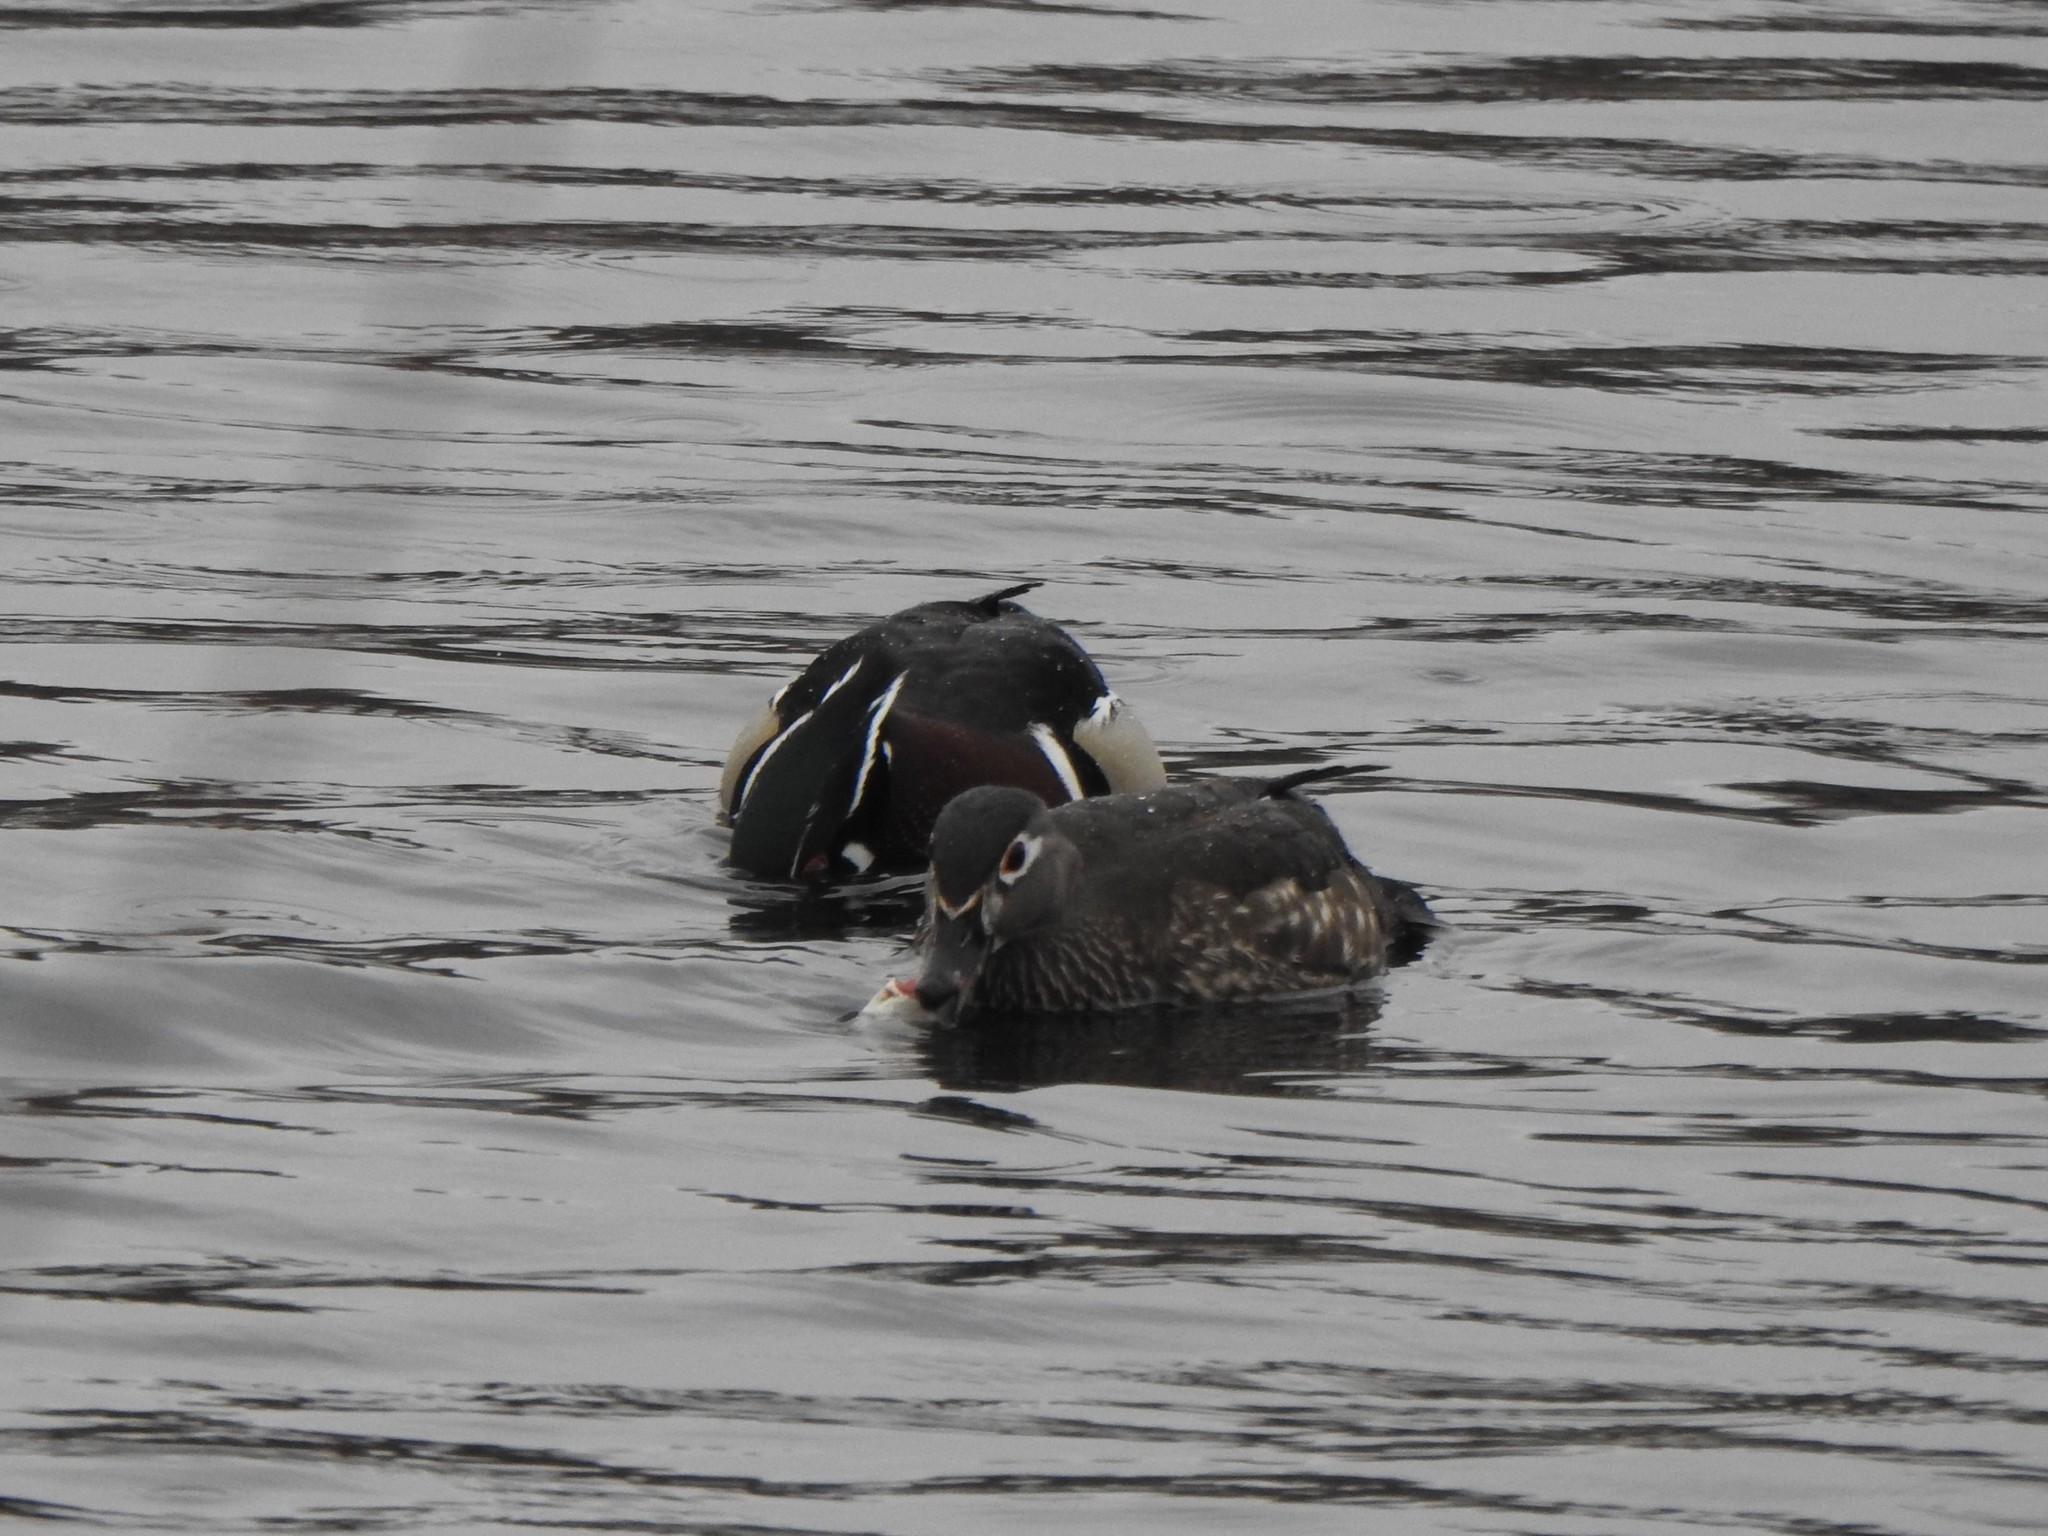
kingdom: Animalia
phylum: Chordata
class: Aves
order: Anseriformes
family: Anatidae
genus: Aix
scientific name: Aix sponsa
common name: Wood duck
